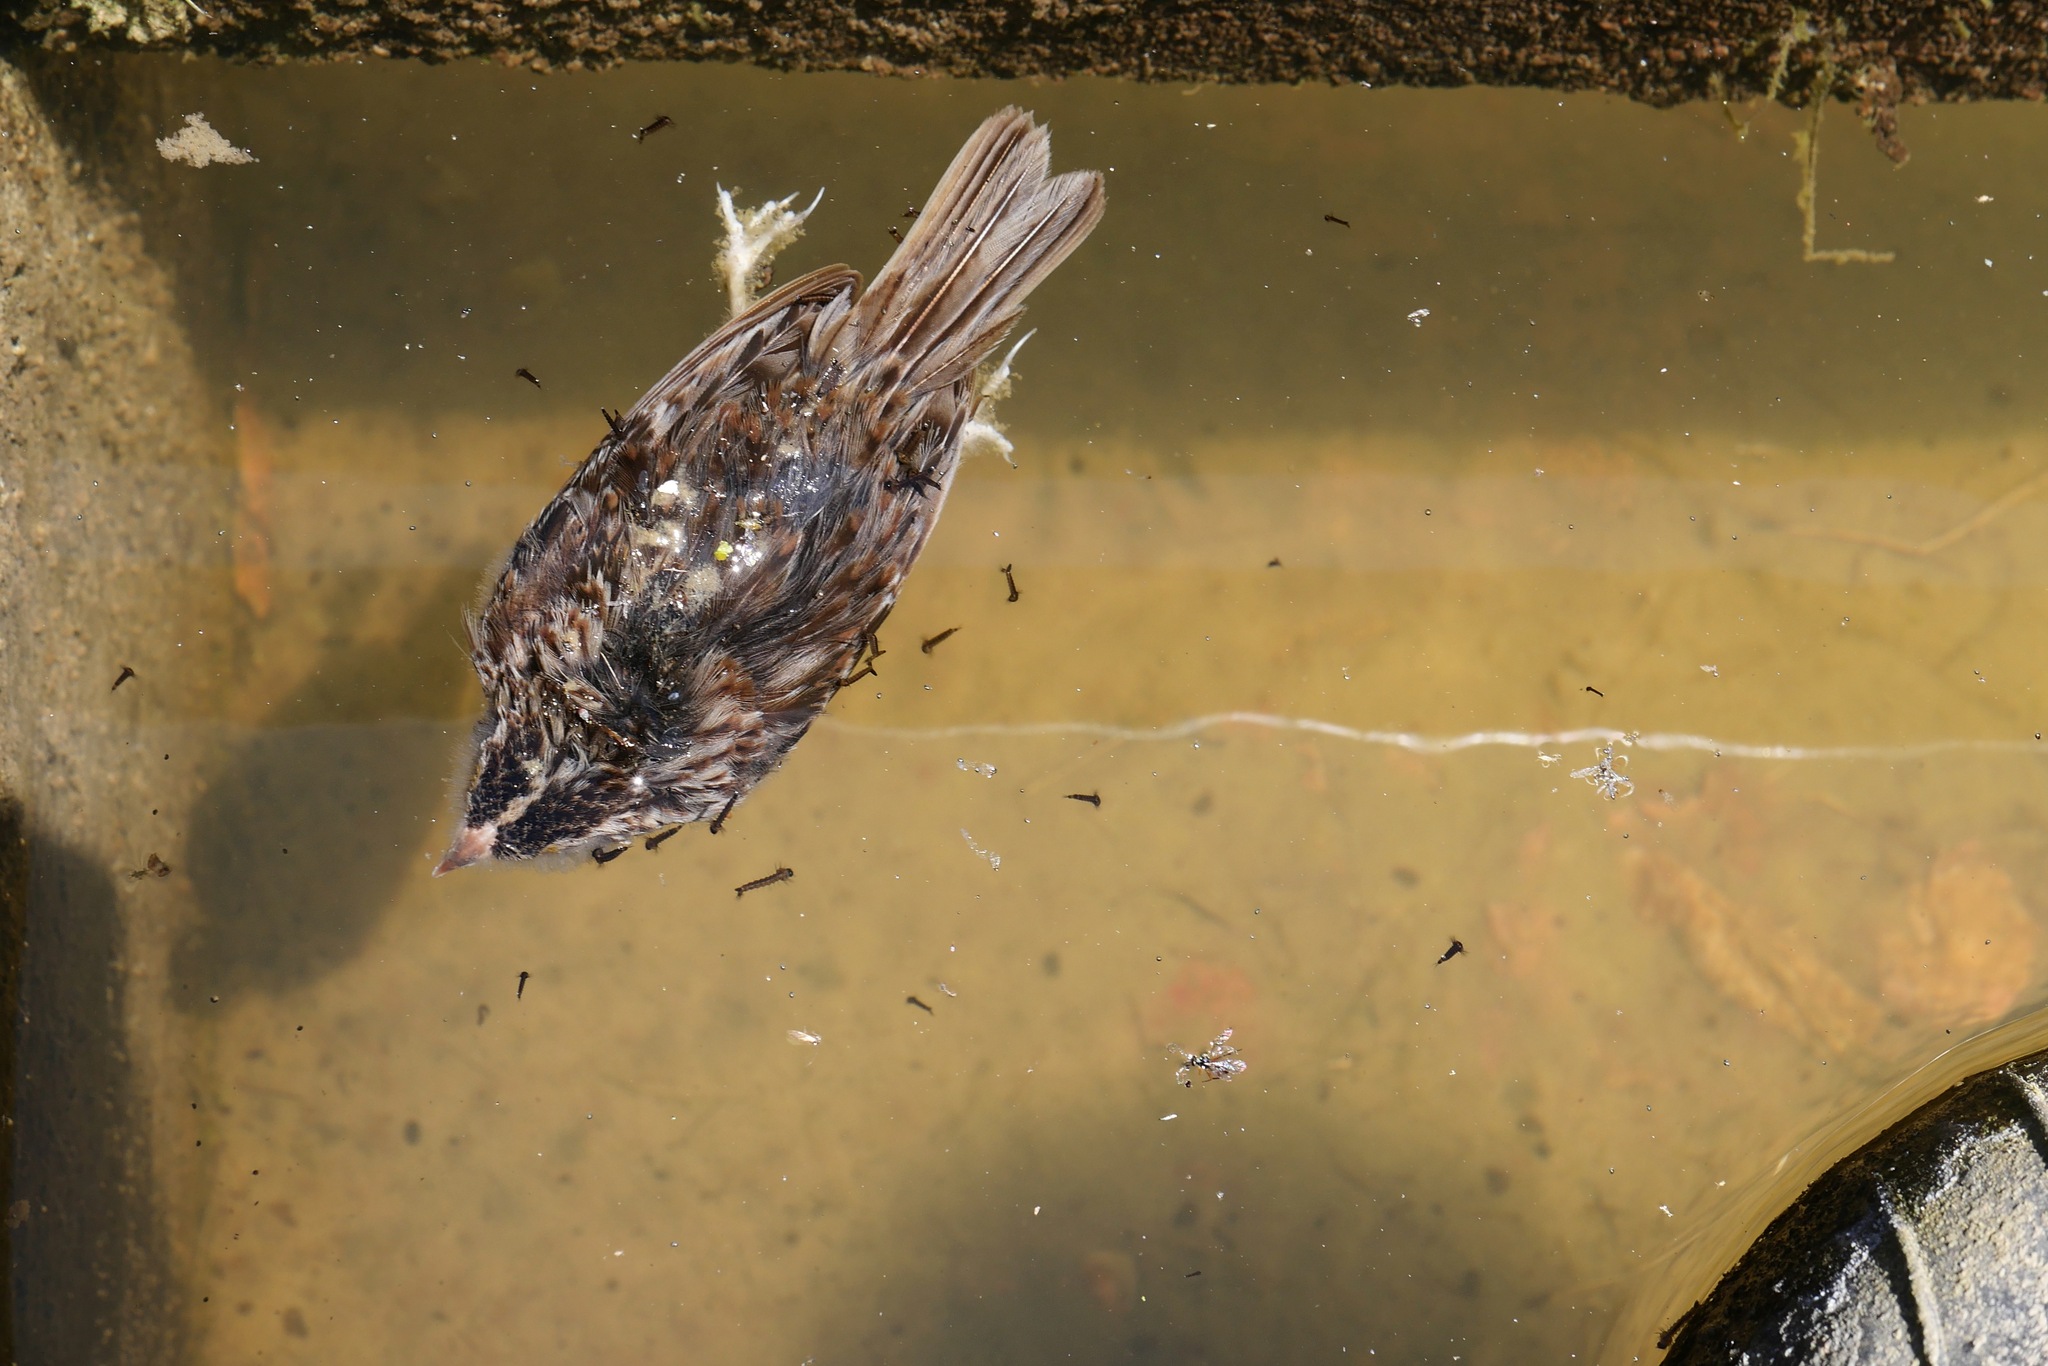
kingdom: Animalia
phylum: Chordata
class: Aves
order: Passeriformes
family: Passerellidae
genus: Ammodramus
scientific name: Ammodramus savannarum
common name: Grasshopper sparrow
